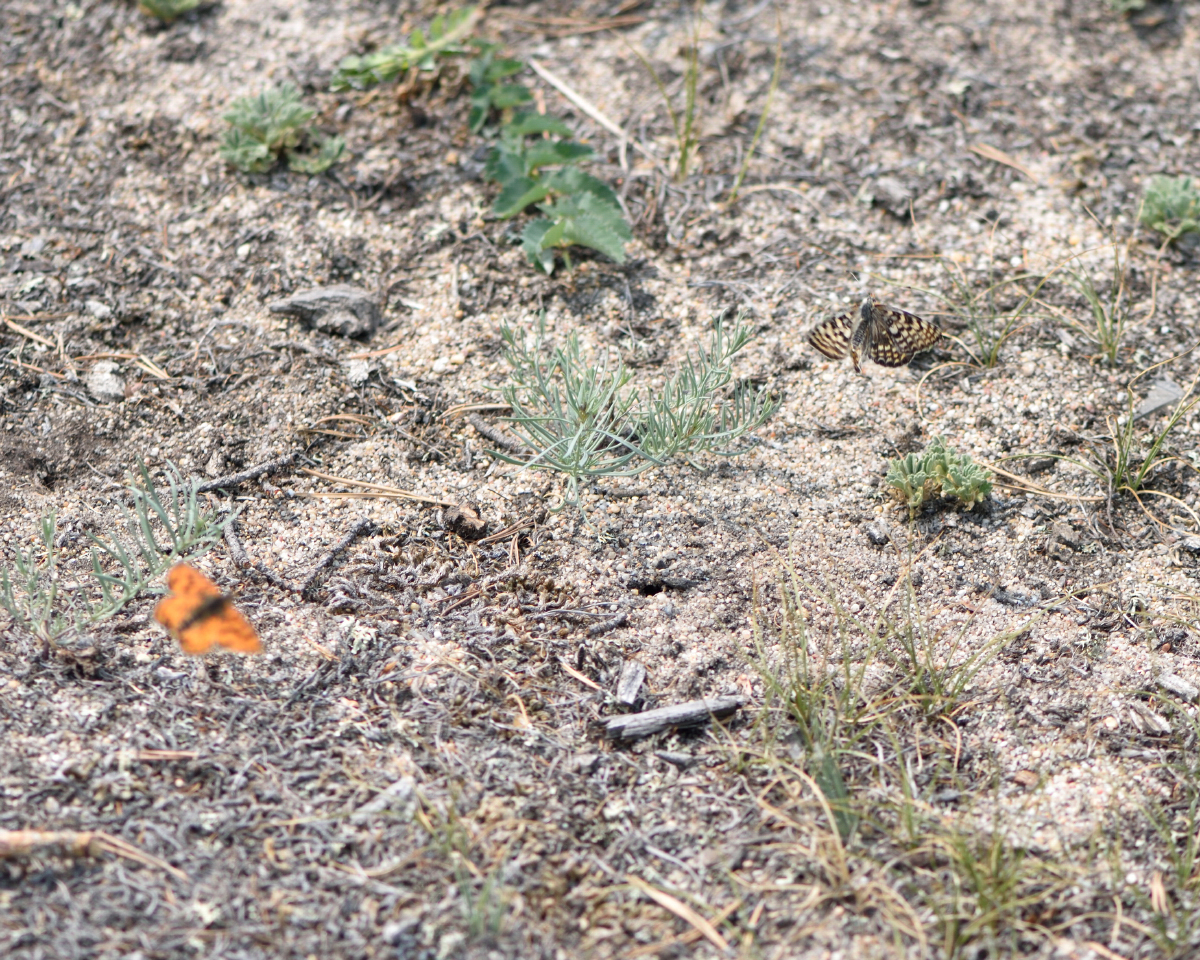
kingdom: Animalia
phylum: Arthropoda
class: Insecta
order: Lepidoptera
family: Nymphalidae
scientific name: Nymphalidae
